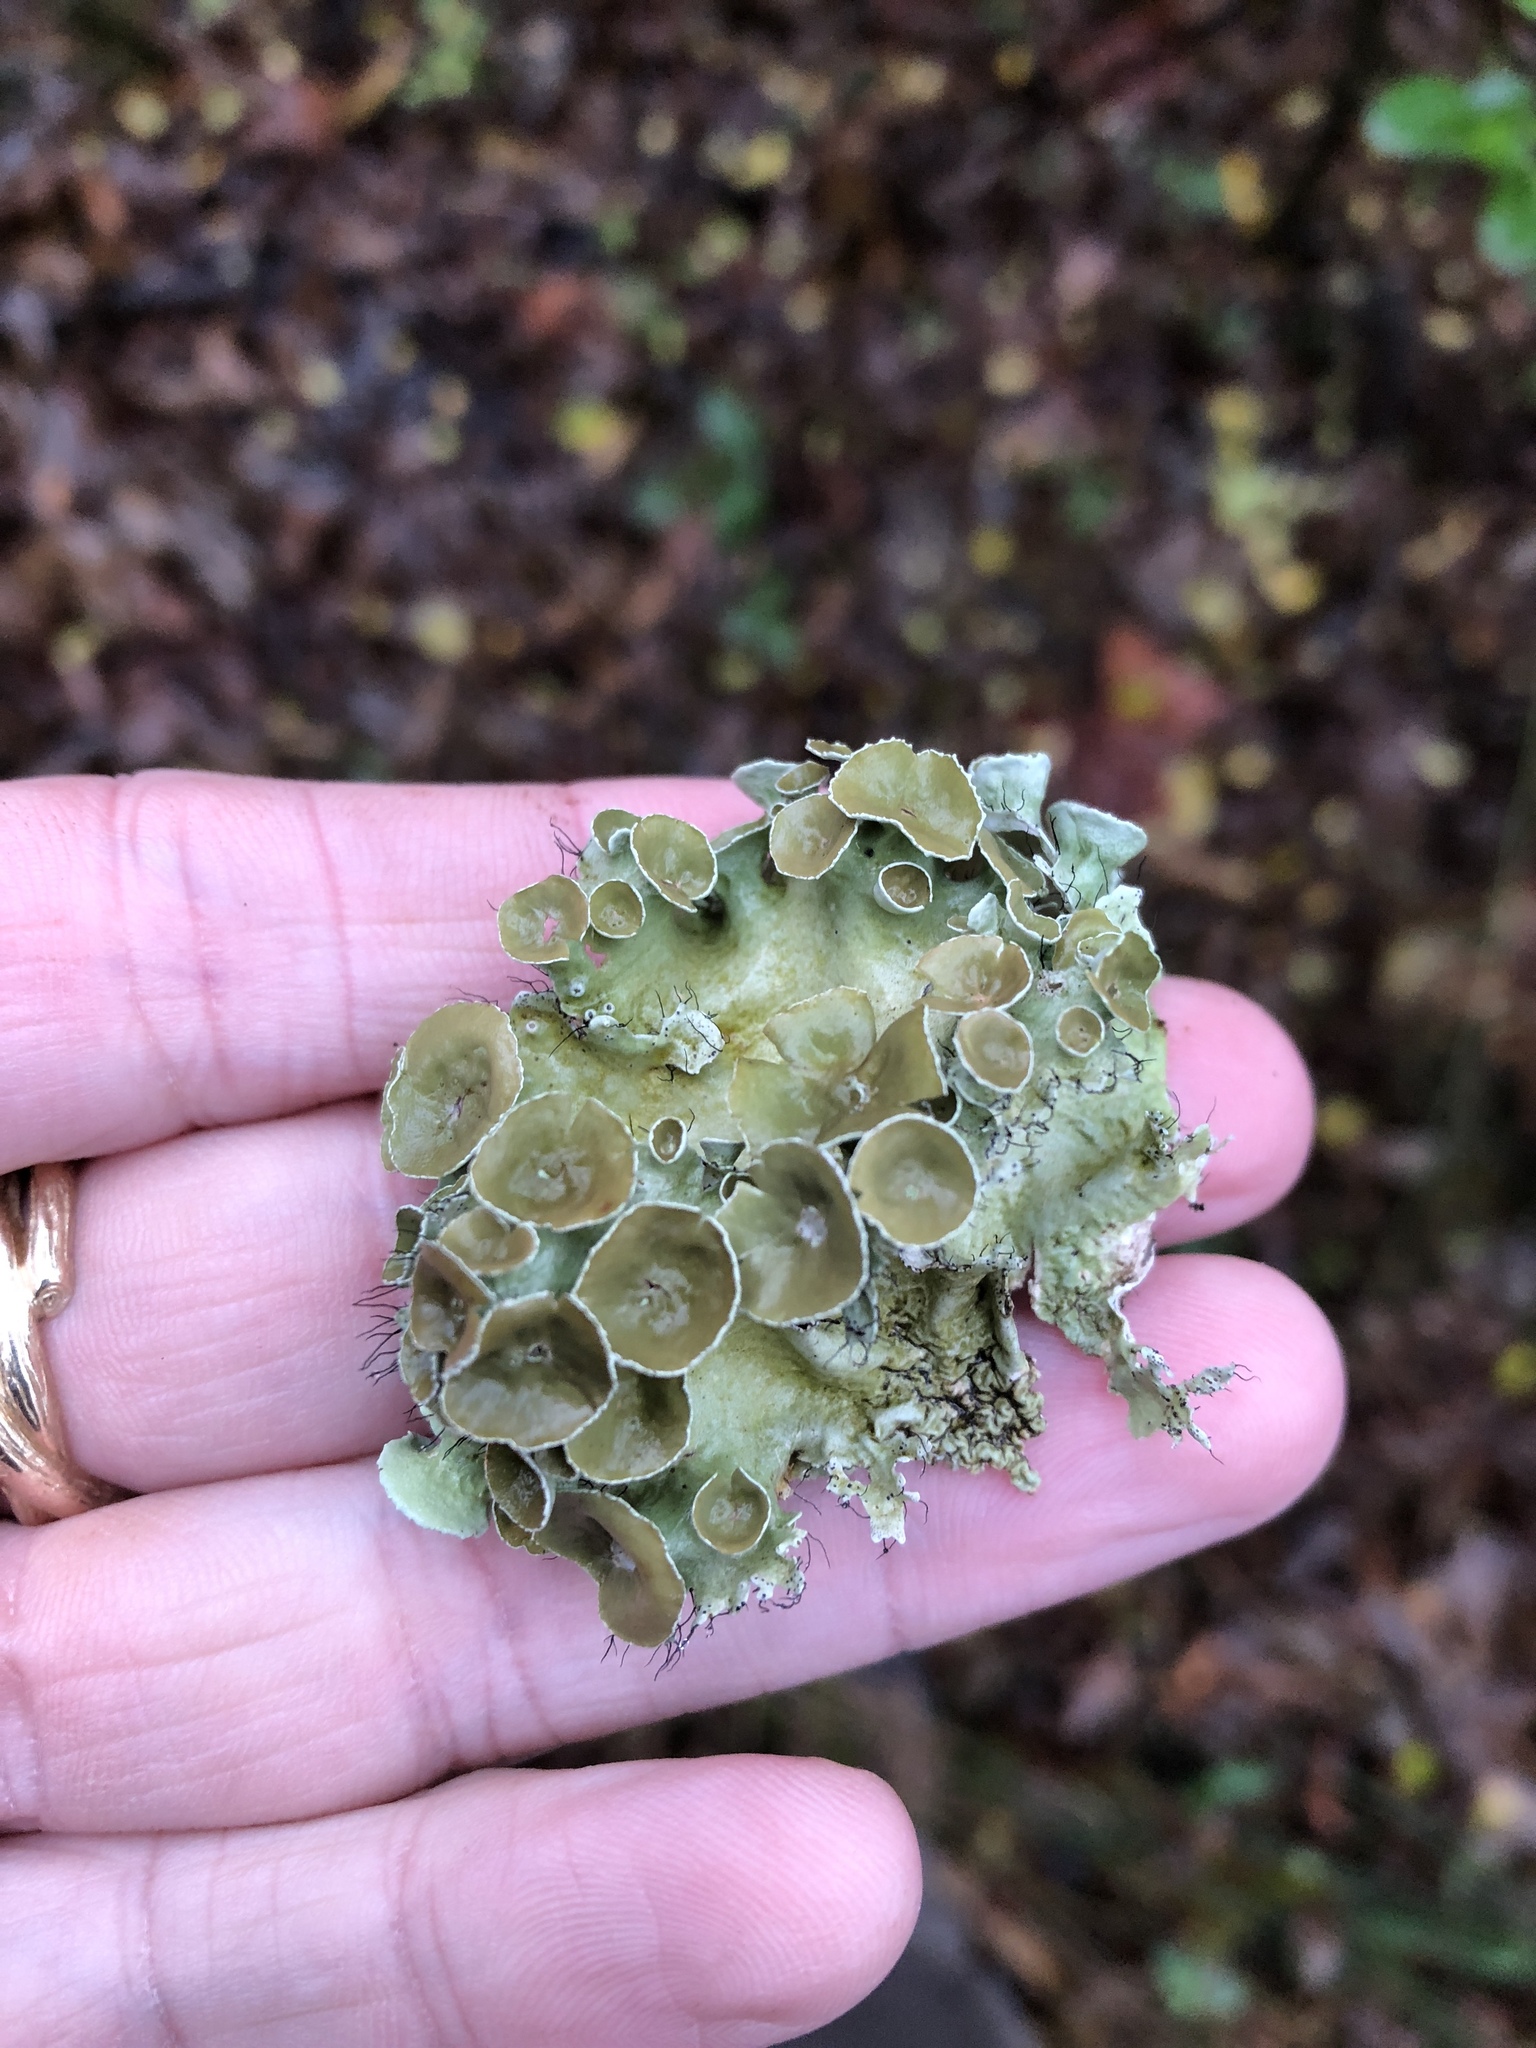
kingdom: Fungi
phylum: Ascomycota
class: Lecanoromycetes
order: Lecanorales
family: Parmeliaceae
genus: Parmotrema
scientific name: Parmotrema perforatum
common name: Perforated ruffle lichen
